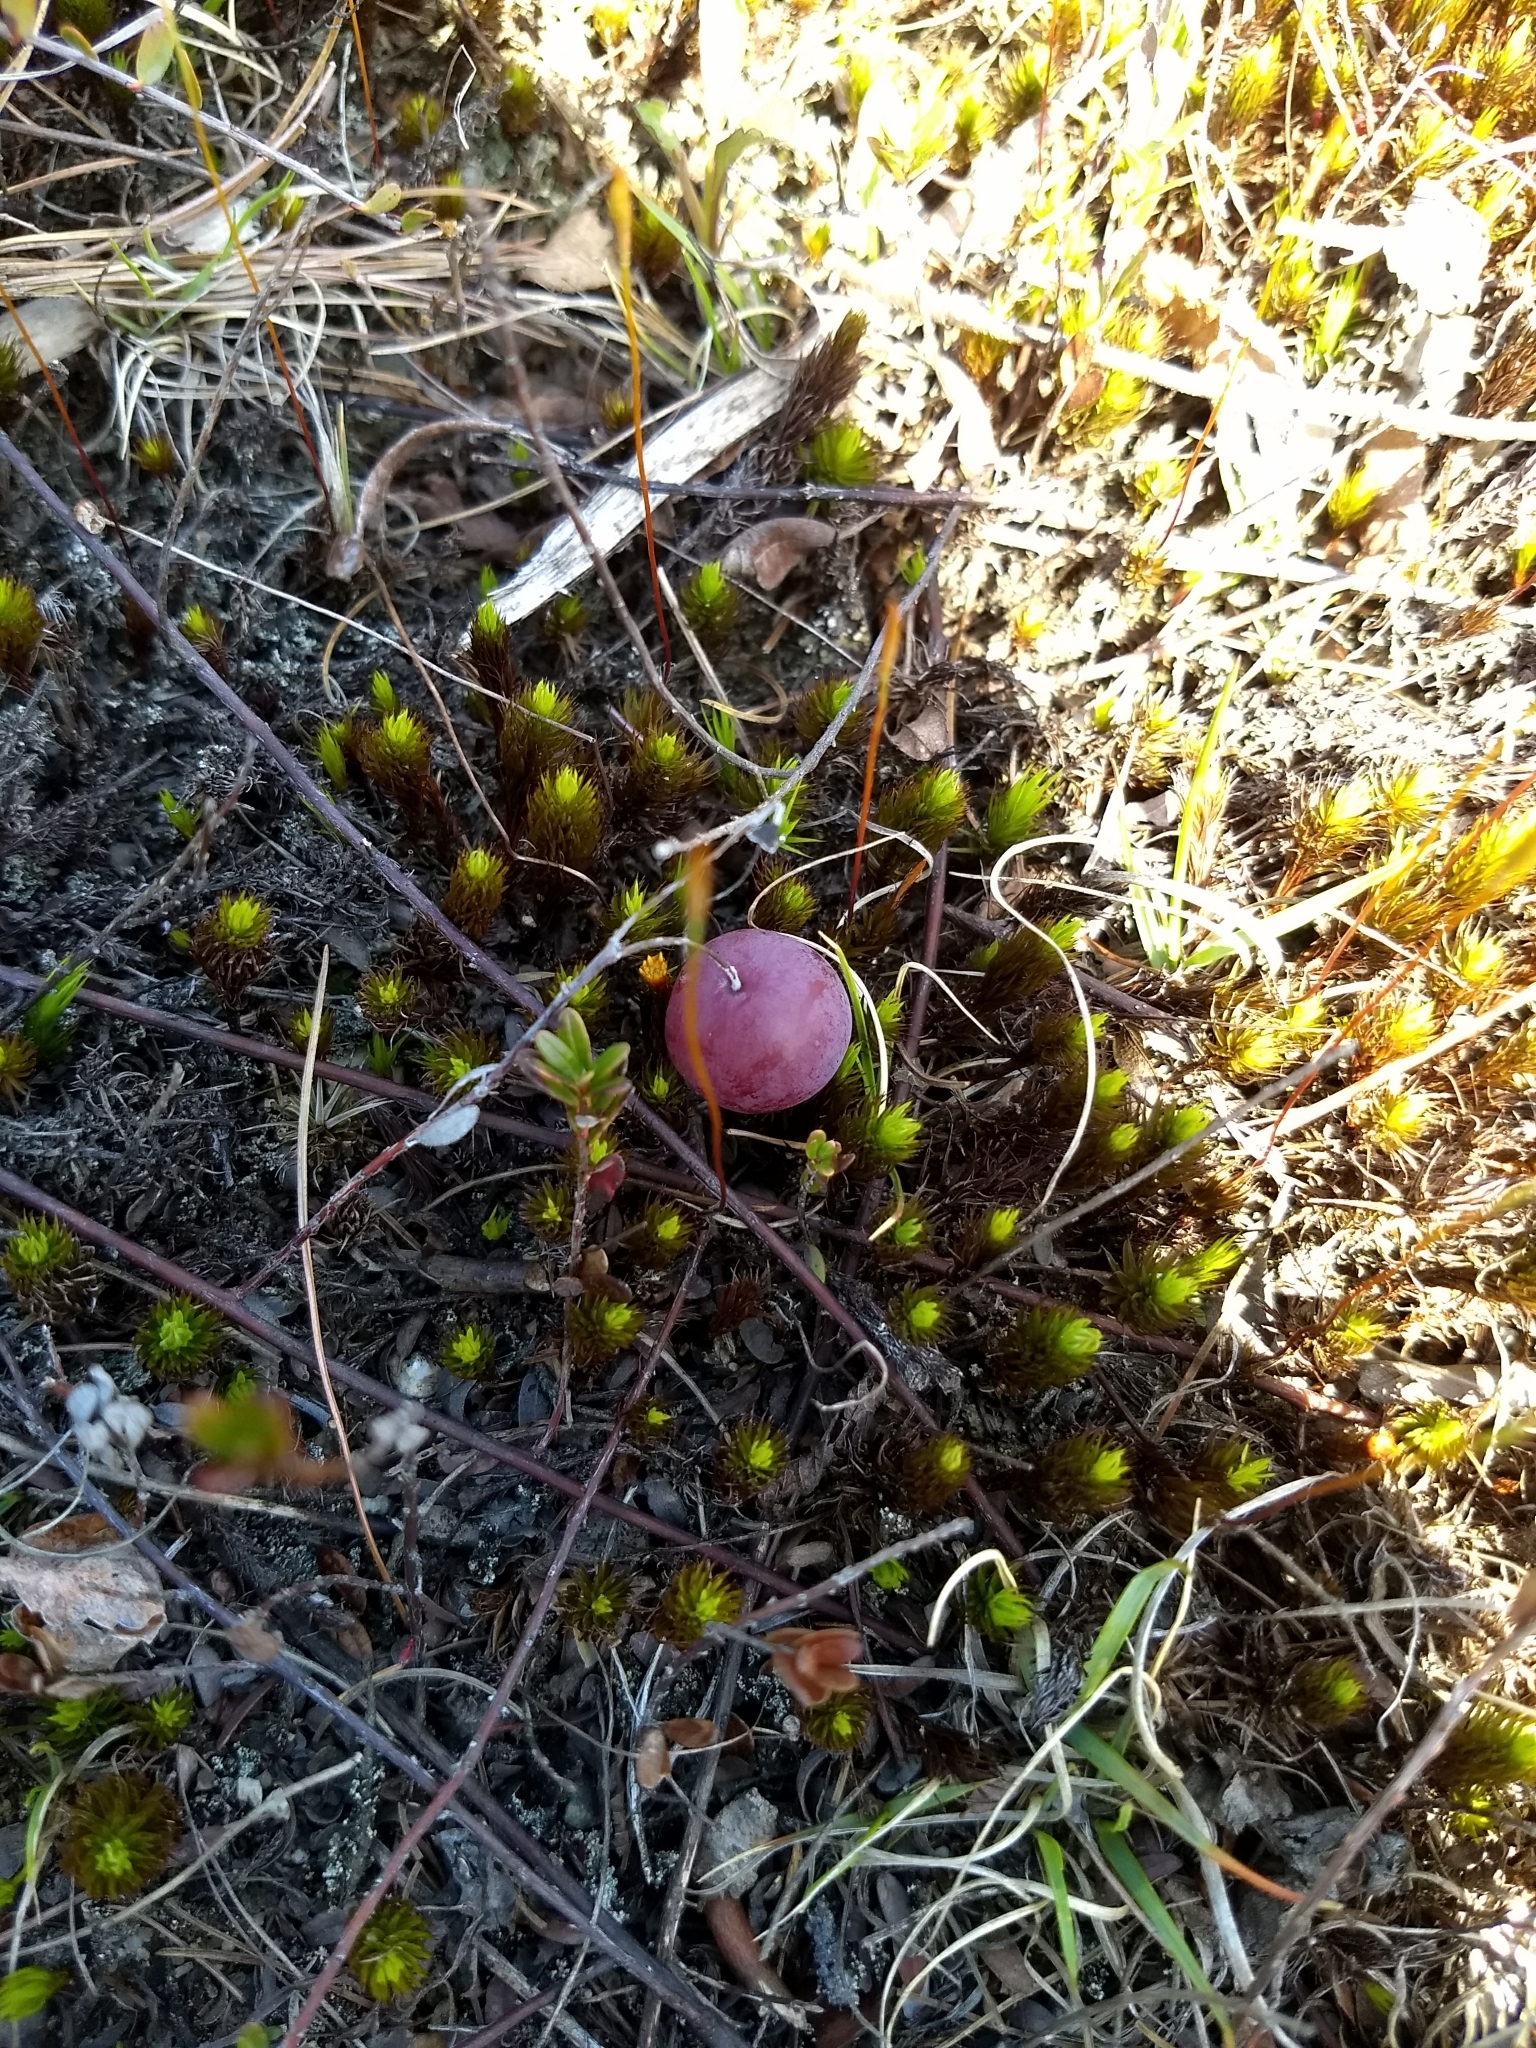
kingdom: Plantae
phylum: Tracheophyta
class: Magnoliopsida
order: Ericales
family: Ericaceae
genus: Vaccinium
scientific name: Vaccinium macrocarpon
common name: American cranberry
